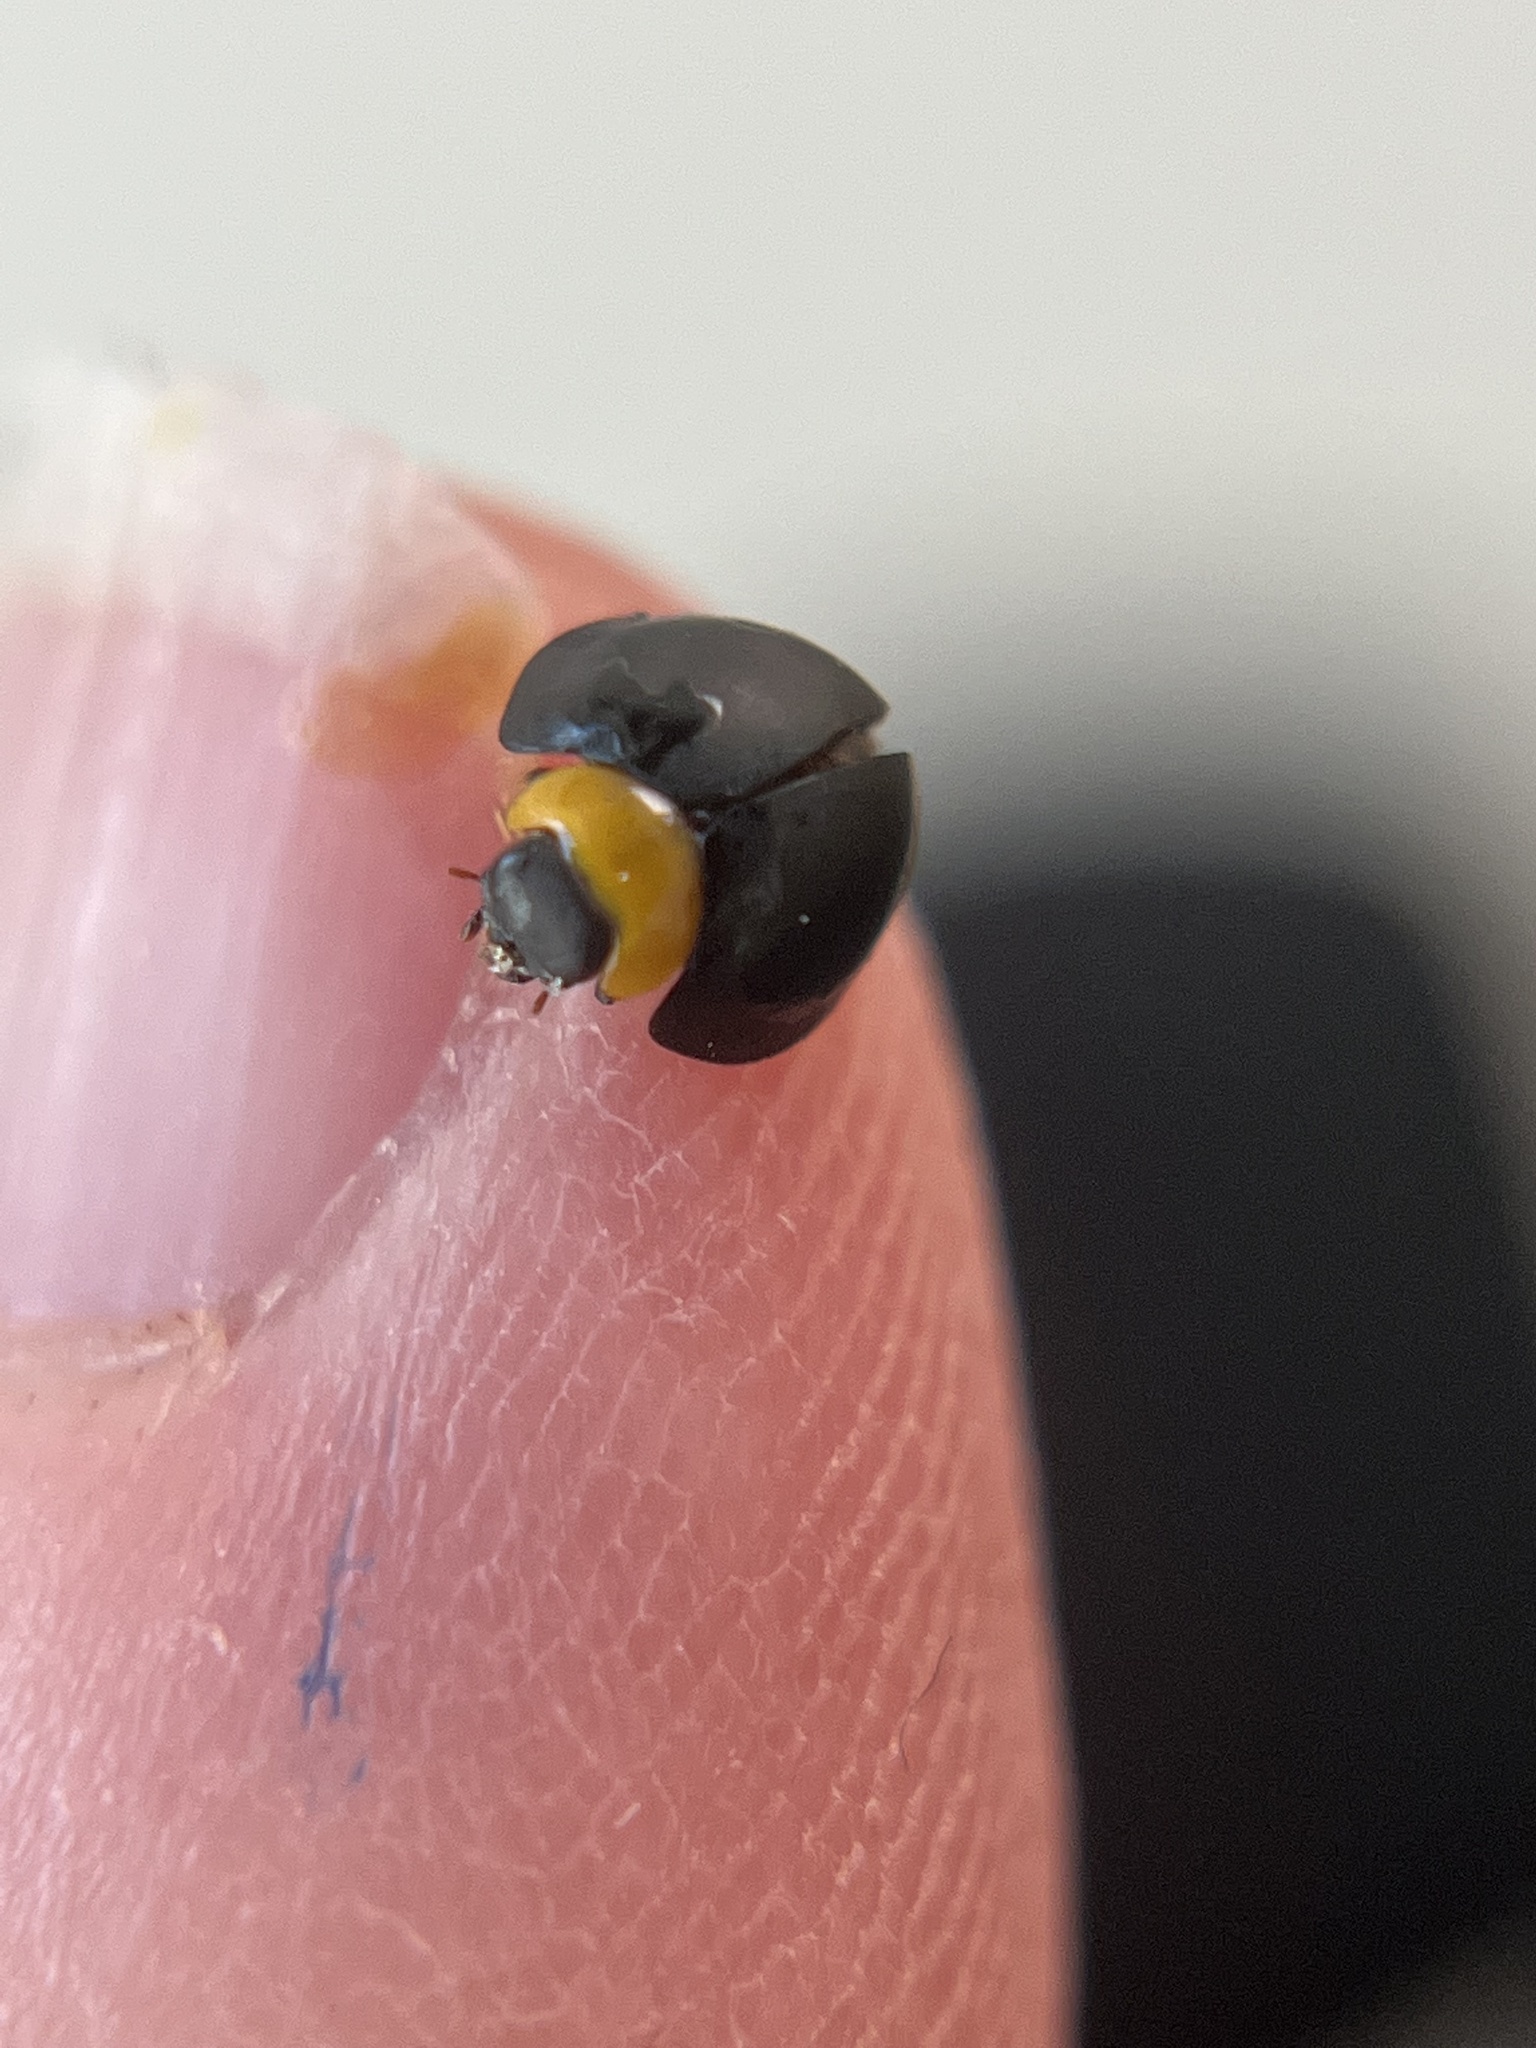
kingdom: Animalia
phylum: Arthropoda
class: Insecta
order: Coleoptera
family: Coccinellidae
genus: Egius
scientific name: Egius platycephalus
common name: Ladybird beetle
